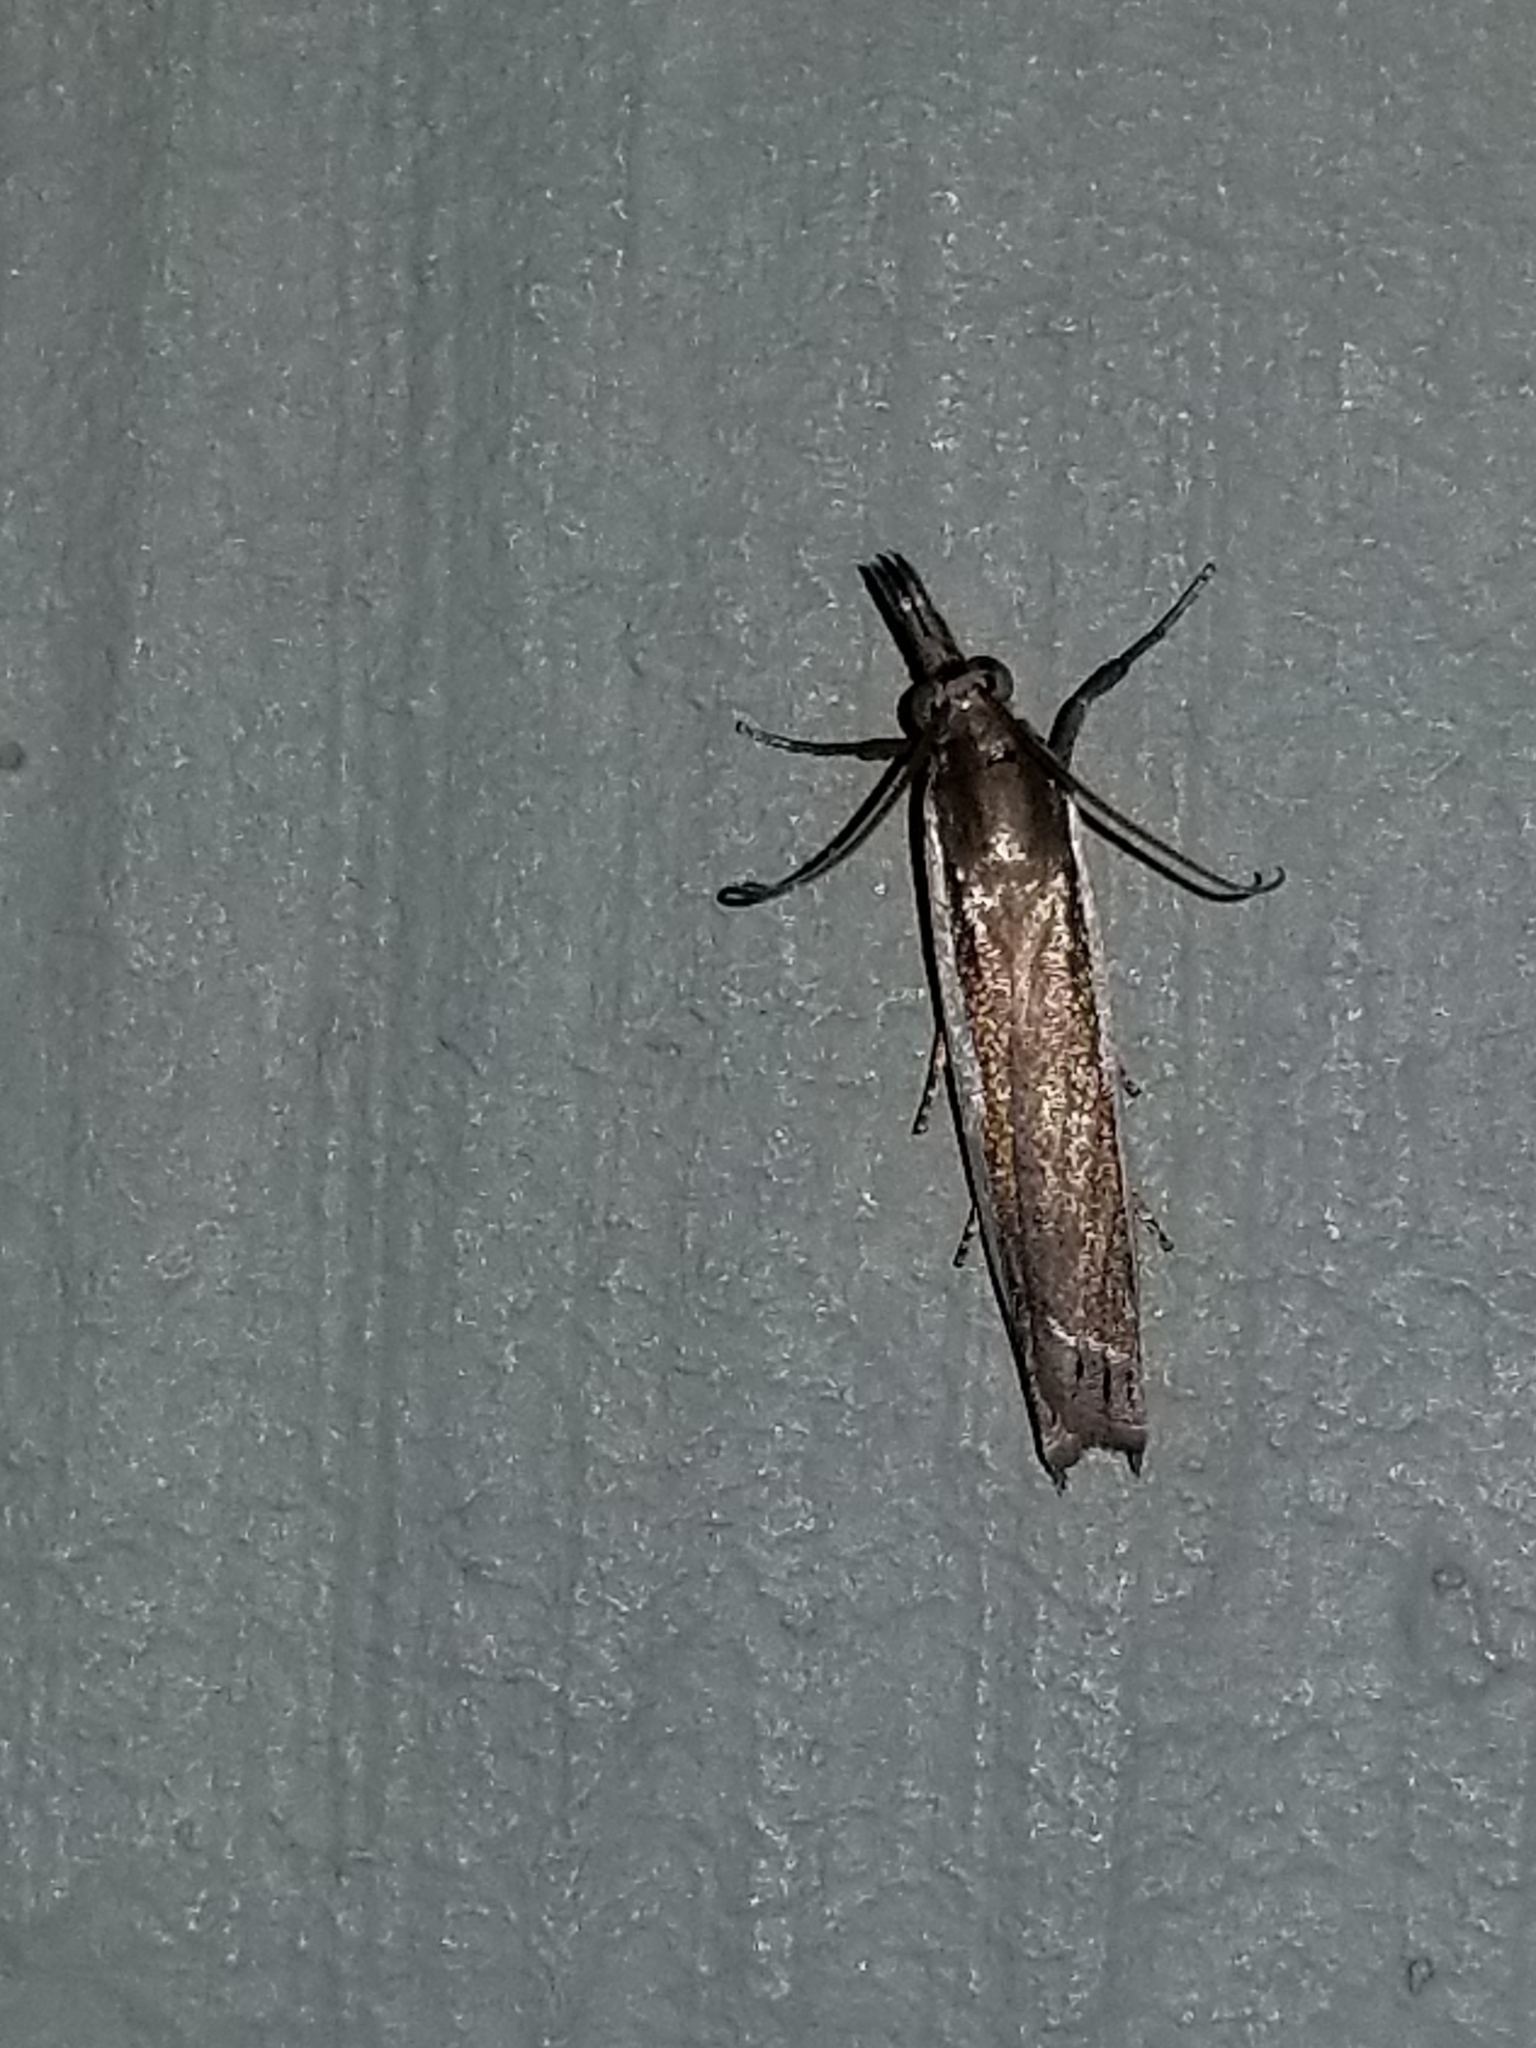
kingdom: Animalia
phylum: Arthropoda
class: Insecta
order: Lepidoptera
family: Crambidae
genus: Crambus
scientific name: Crambus quinquareatus
